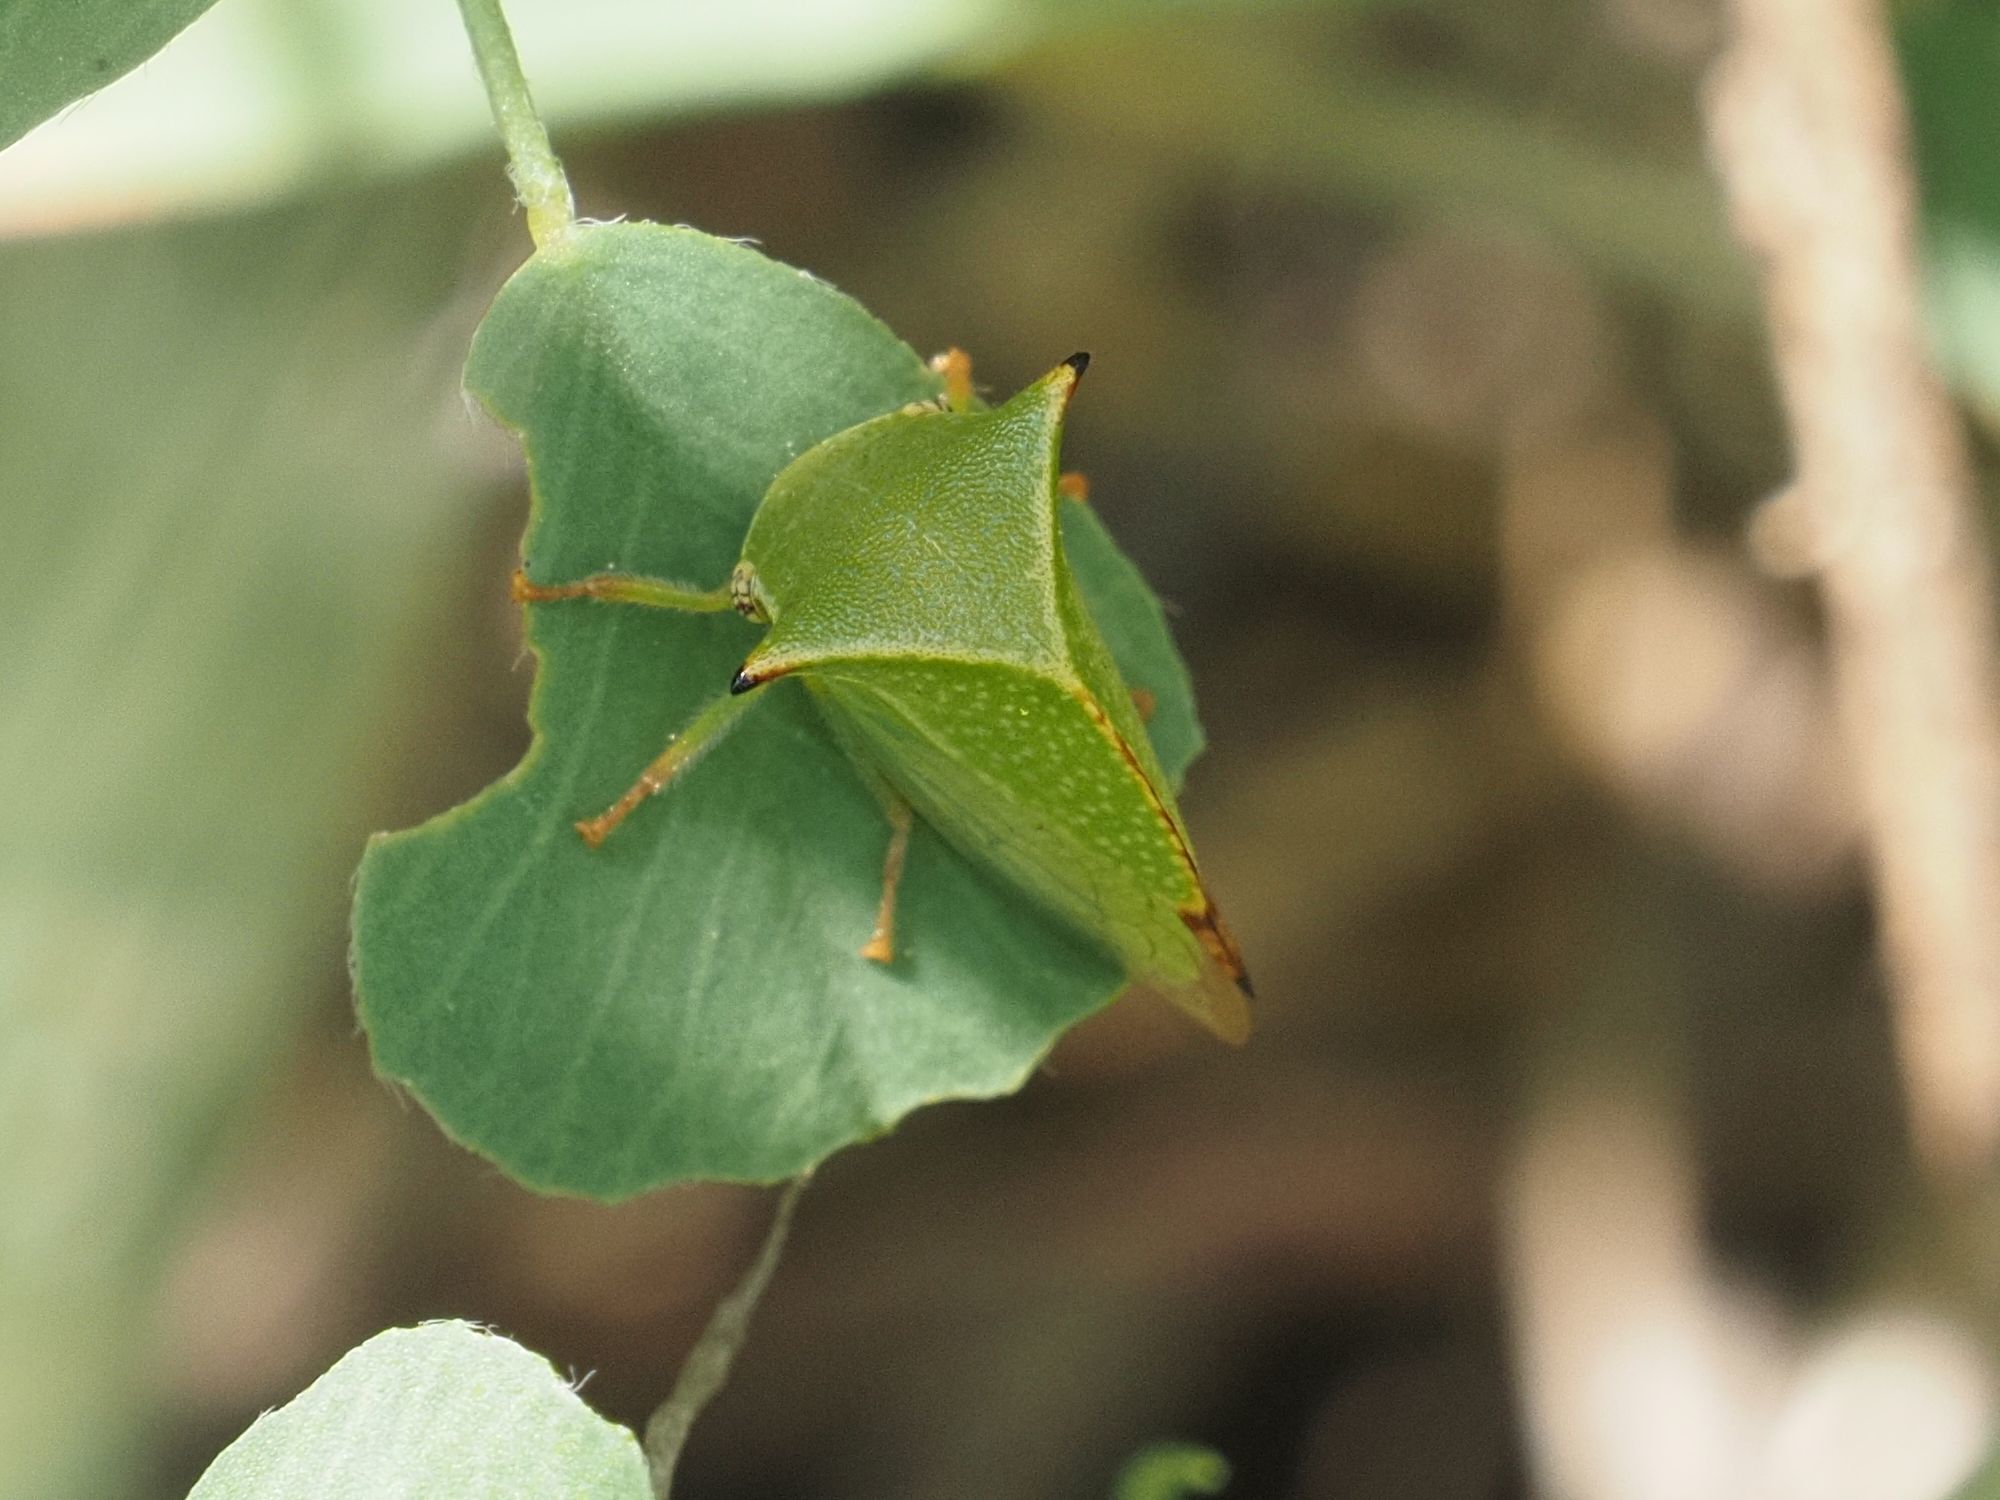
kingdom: Animalia
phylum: Arthropoda
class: Insecta
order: Hemiptera
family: Membracidae
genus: Stictocephala
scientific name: Stictocephala bisonia
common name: American buffalo treehopper
